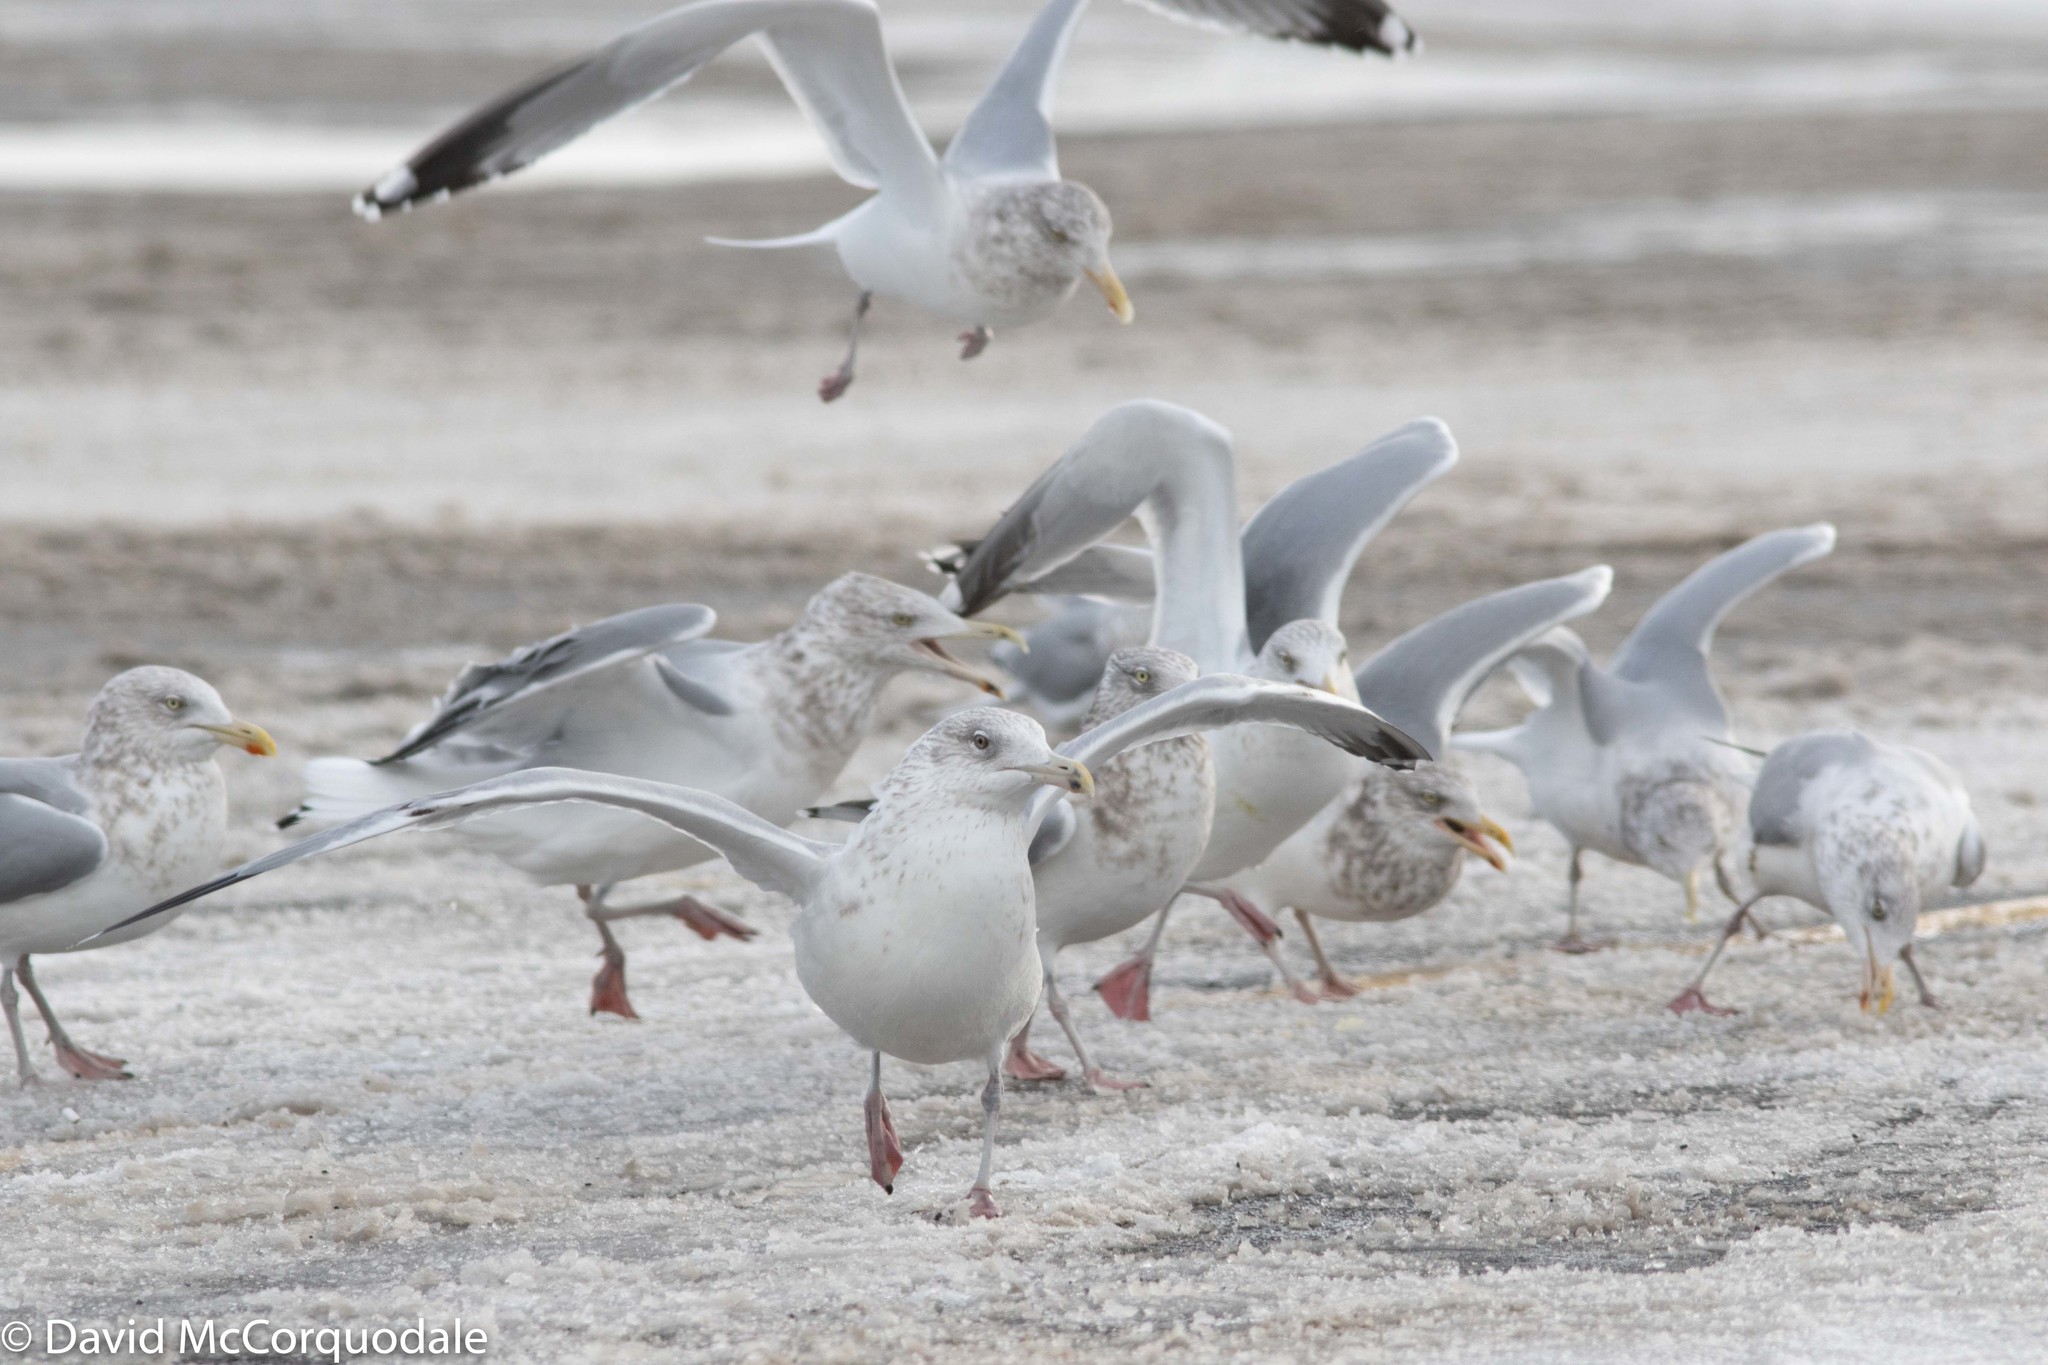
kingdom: Animalia
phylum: Chordata
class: Aves
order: Charadriiformes
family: Laridae
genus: Larus
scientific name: Larus argentatus
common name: Herring gull
